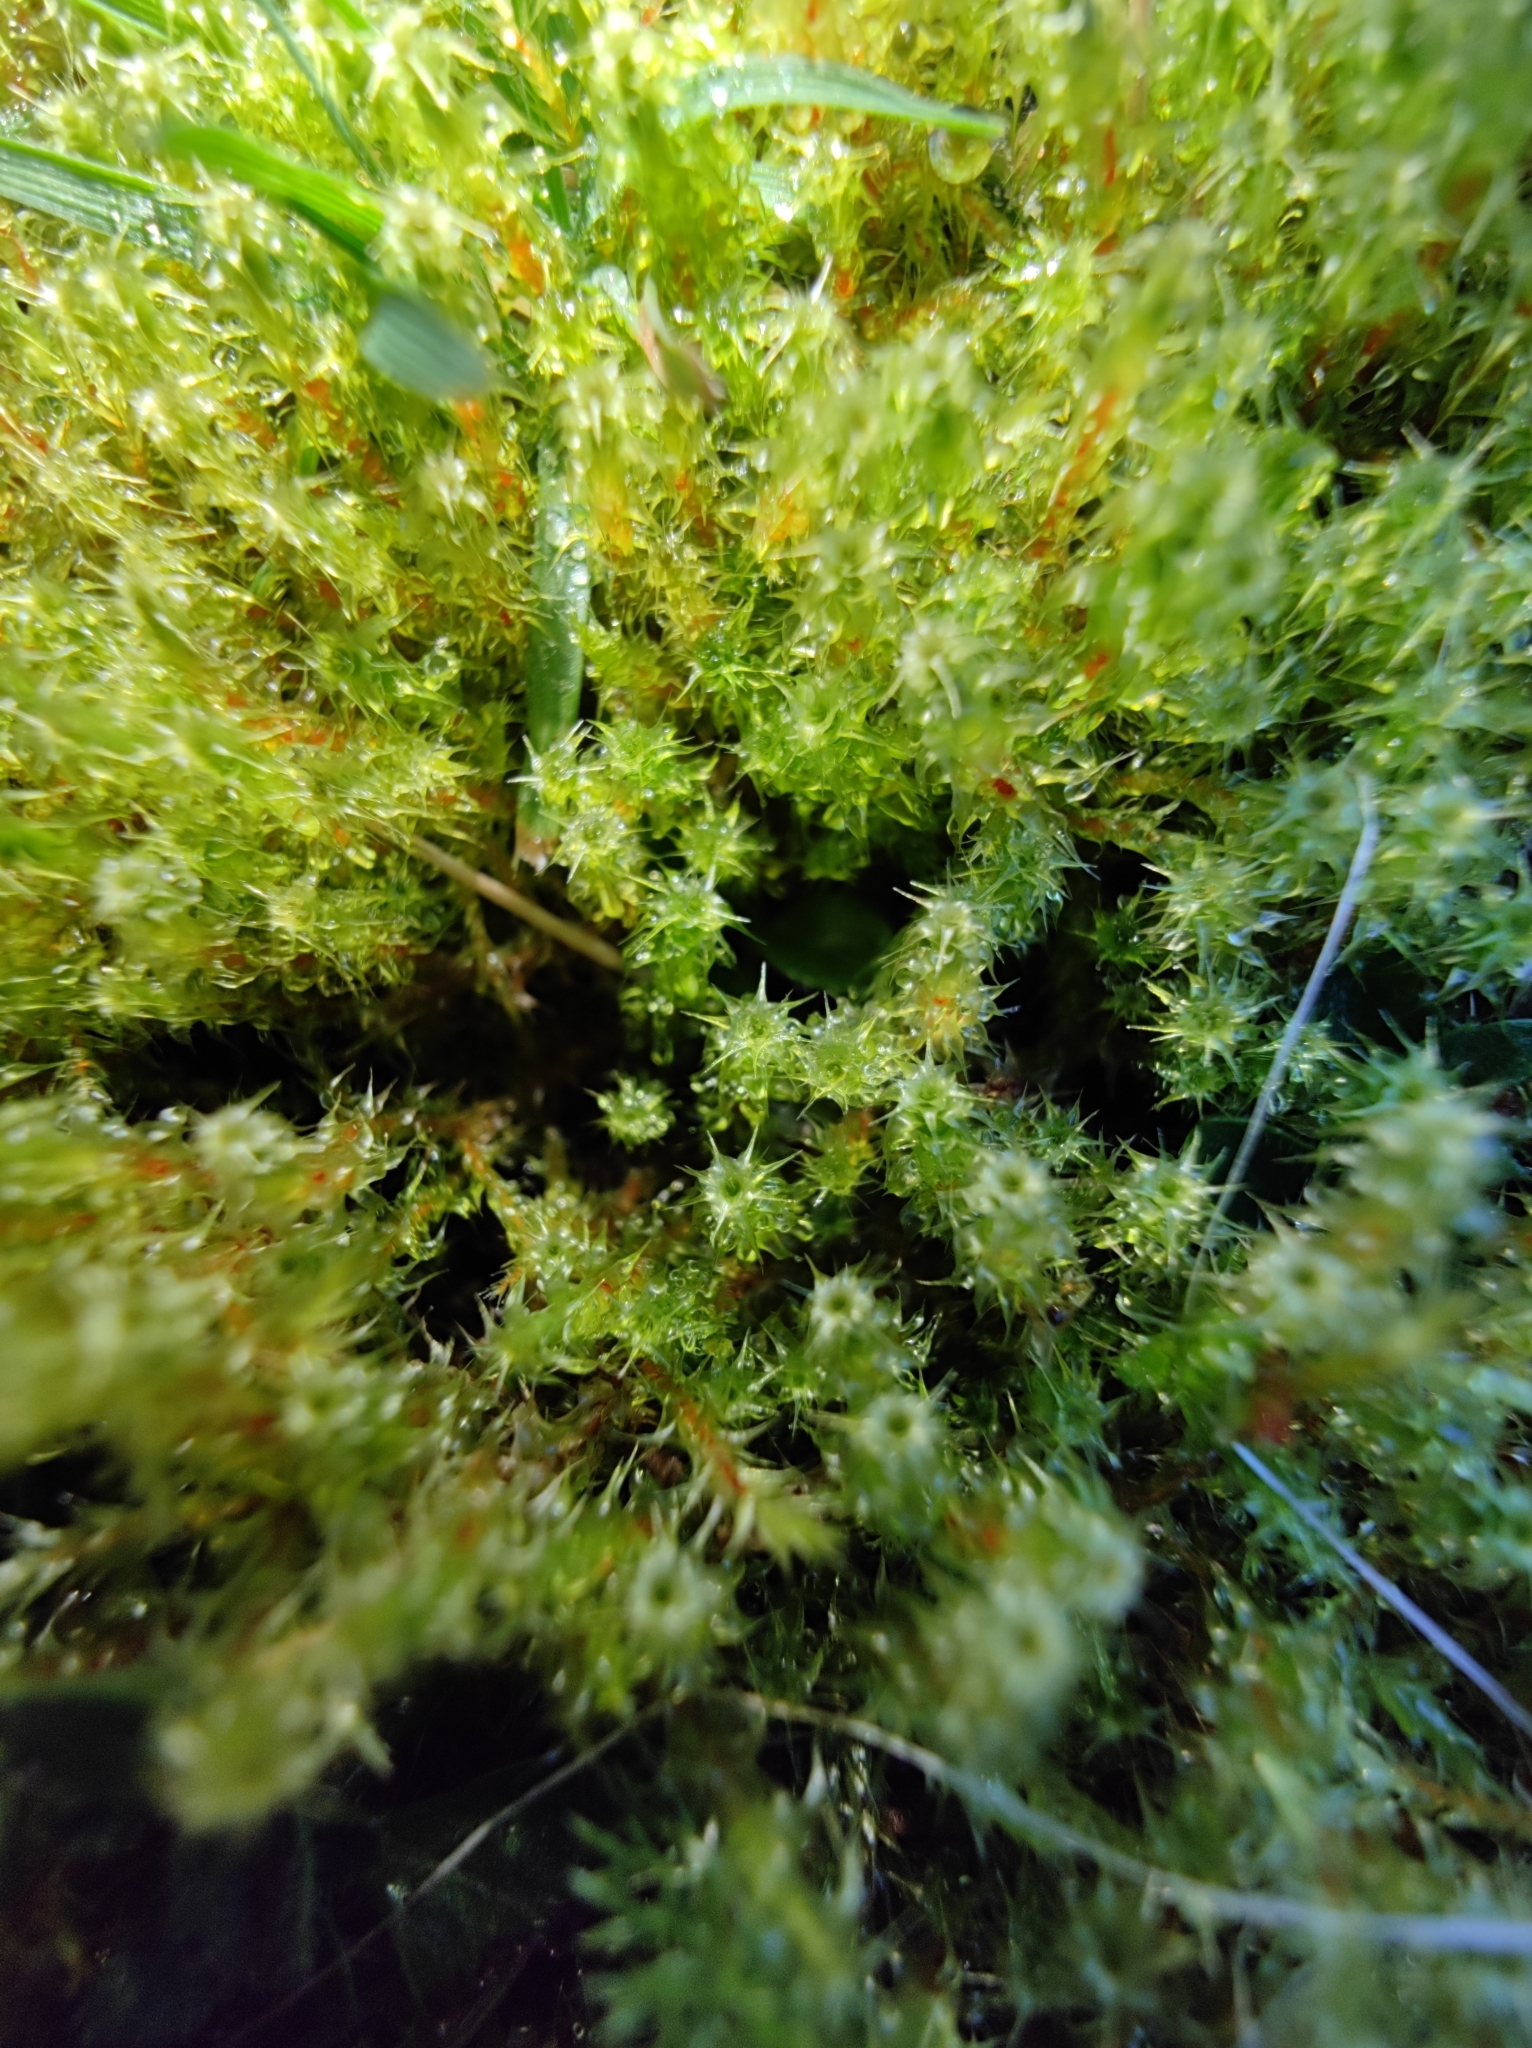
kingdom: Plantae
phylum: Bryophyta
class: Bryopsida
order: Hypnales
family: Hylocomiaceae
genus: Rhytidiadelphus
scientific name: Rhytidiadelphus squarrosus
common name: Springy turf-moss
